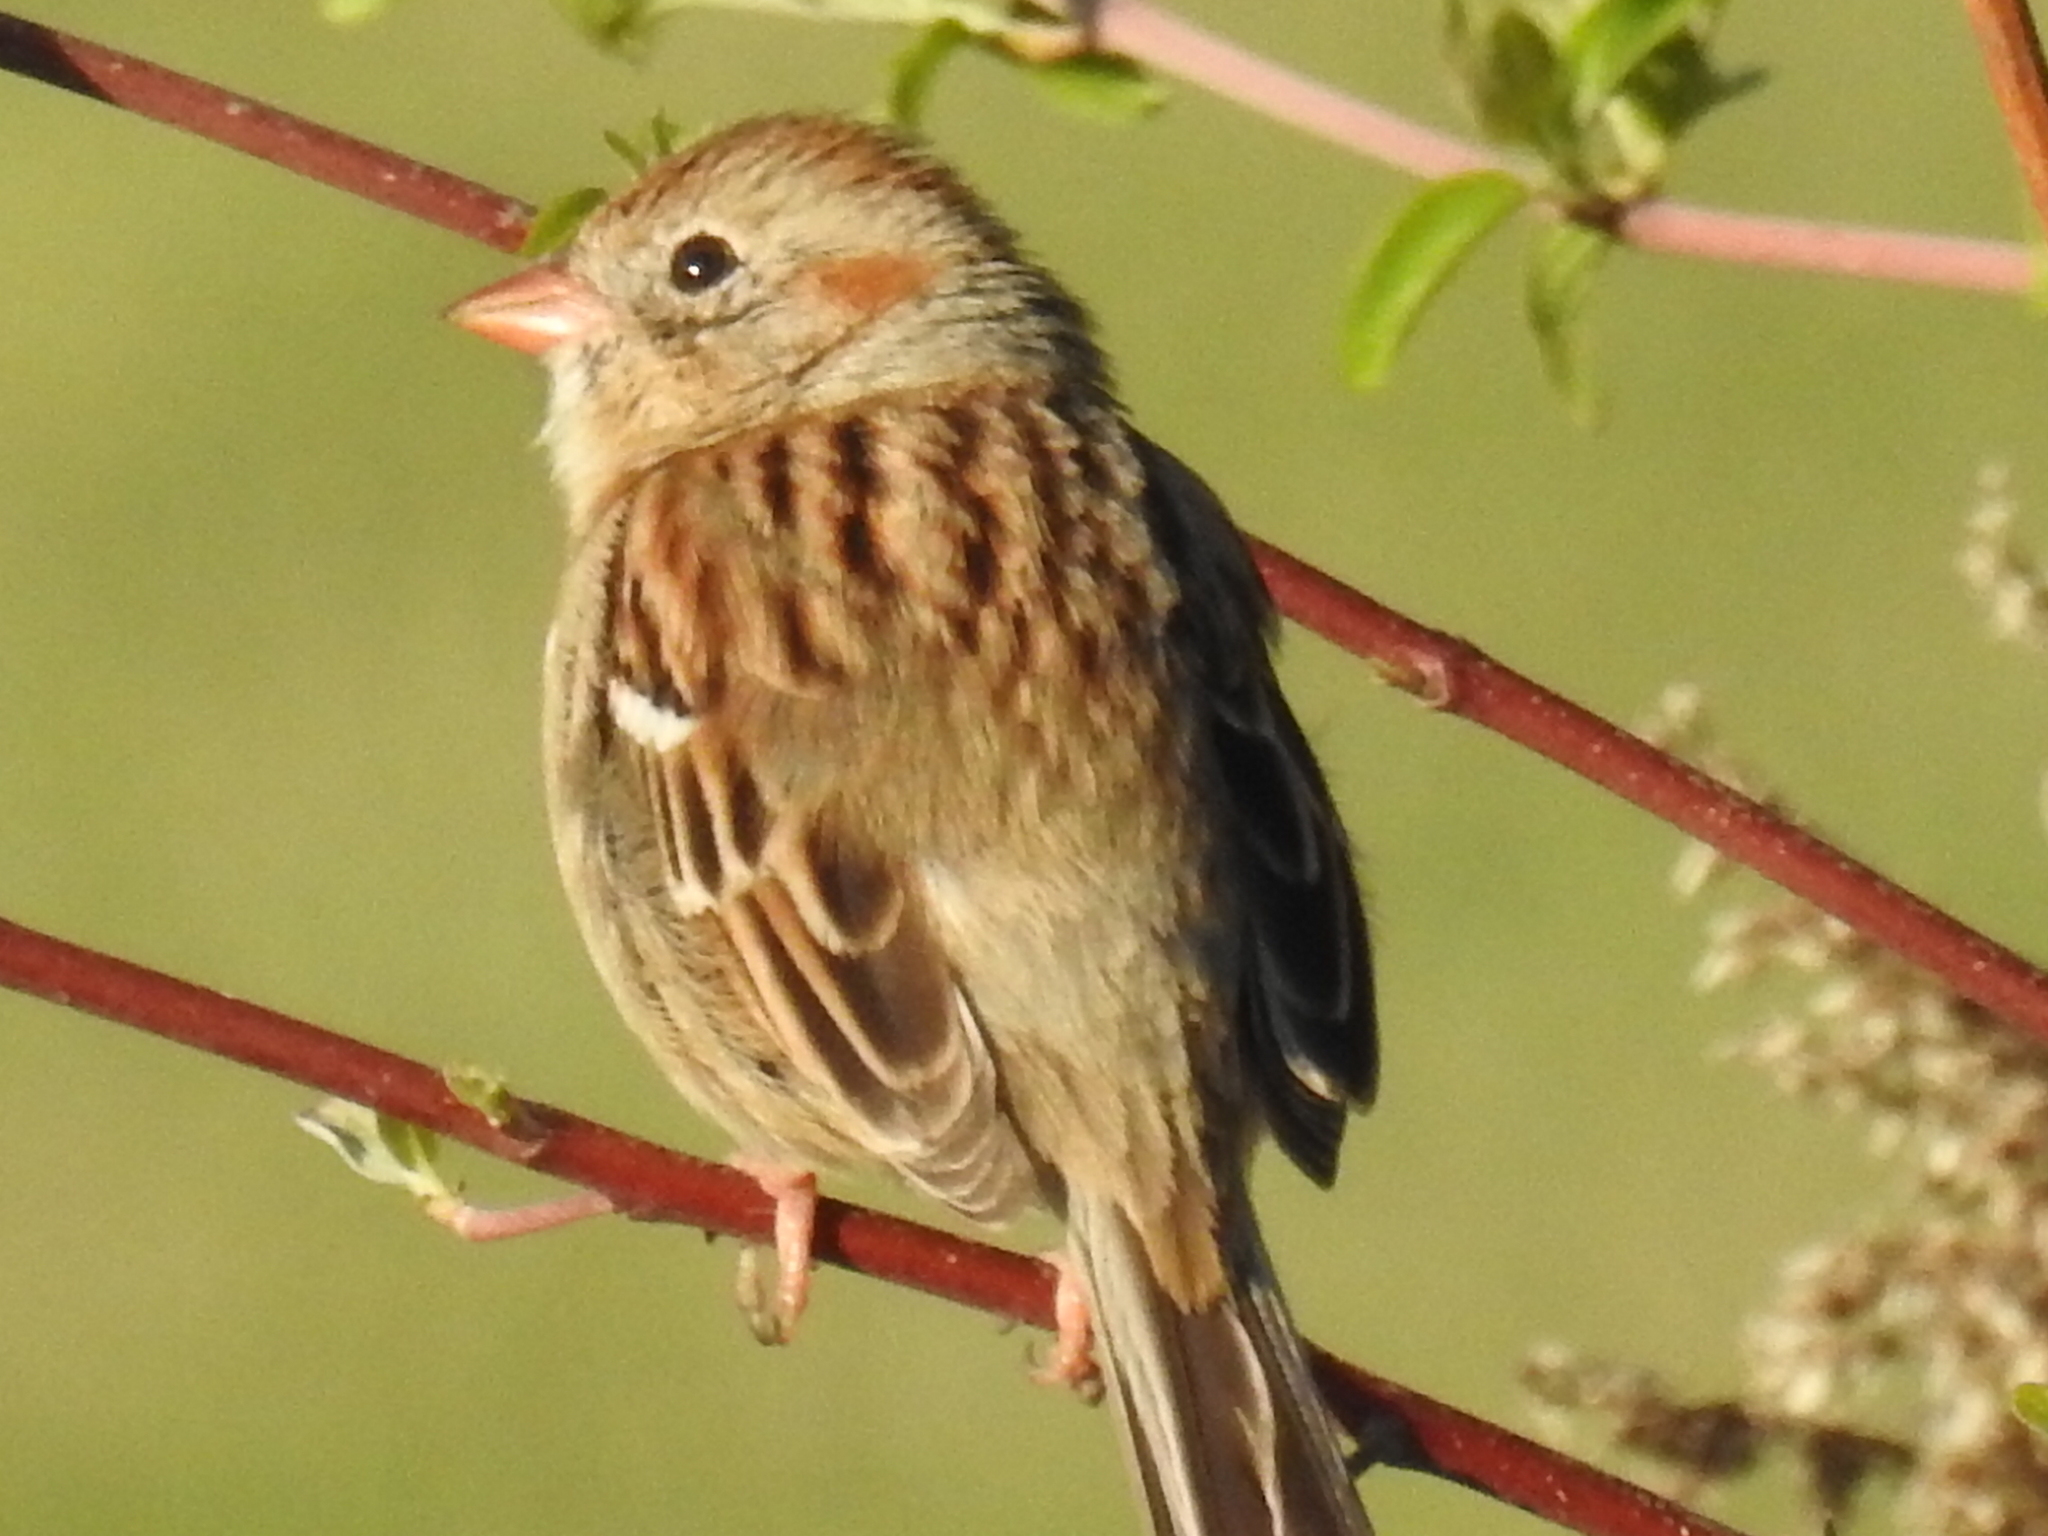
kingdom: Animalia
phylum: Chordata
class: Aves
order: Passeriformes
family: Passerellidae
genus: Spizella
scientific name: Spizella pusilla
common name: Field sparrow
